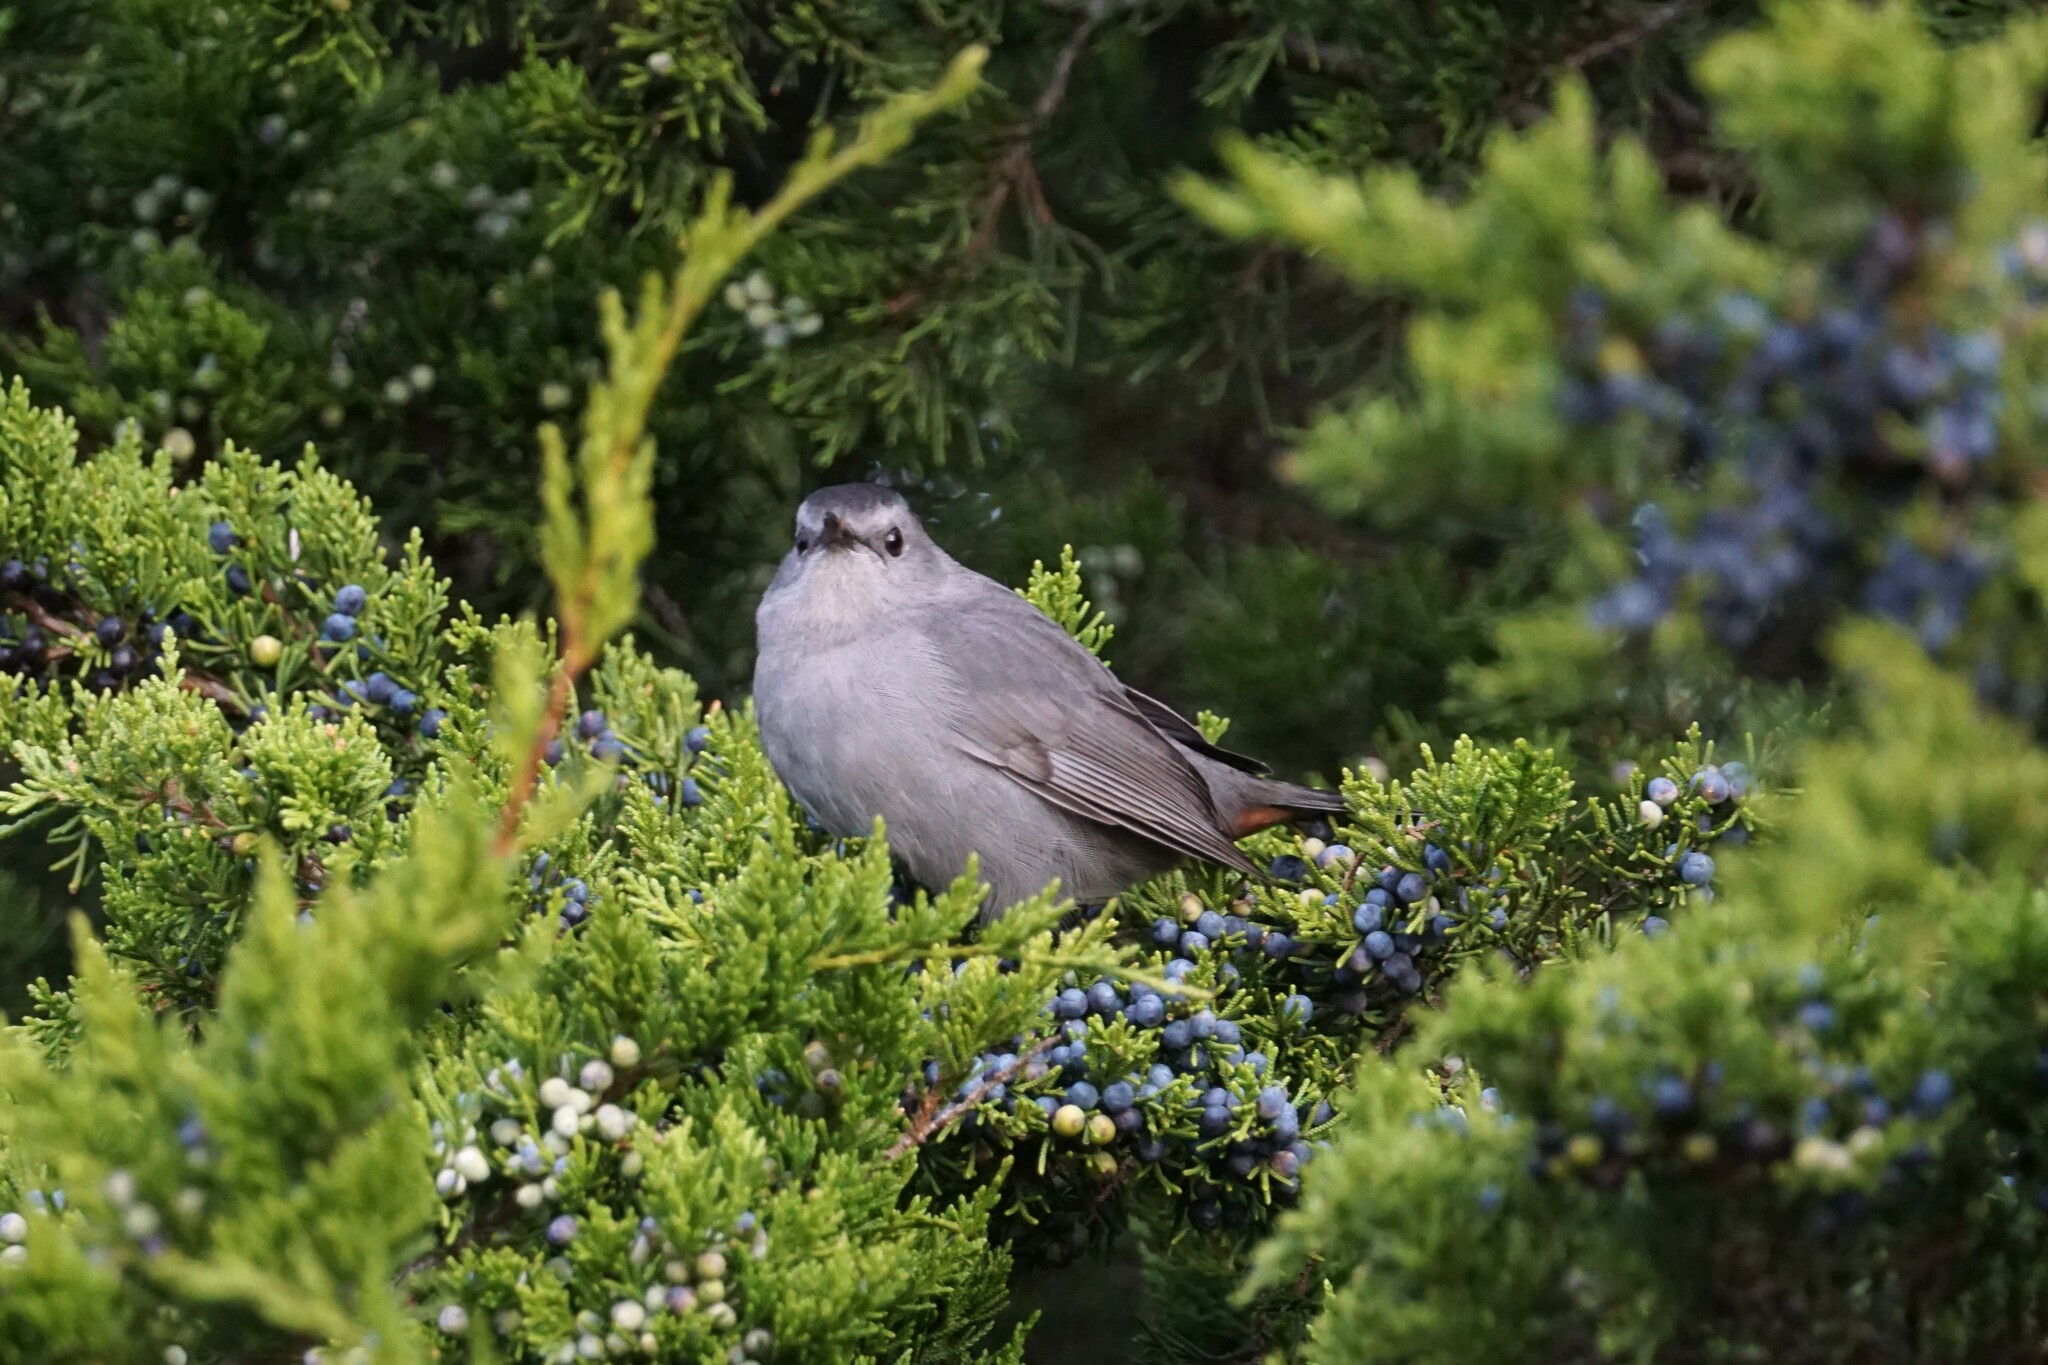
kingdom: Animalia
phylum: Chordata
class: Aves
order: Passeriformes
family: Mimidae
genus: Dumetella
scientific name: Dumetella carolinensis
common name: Gray catbird
